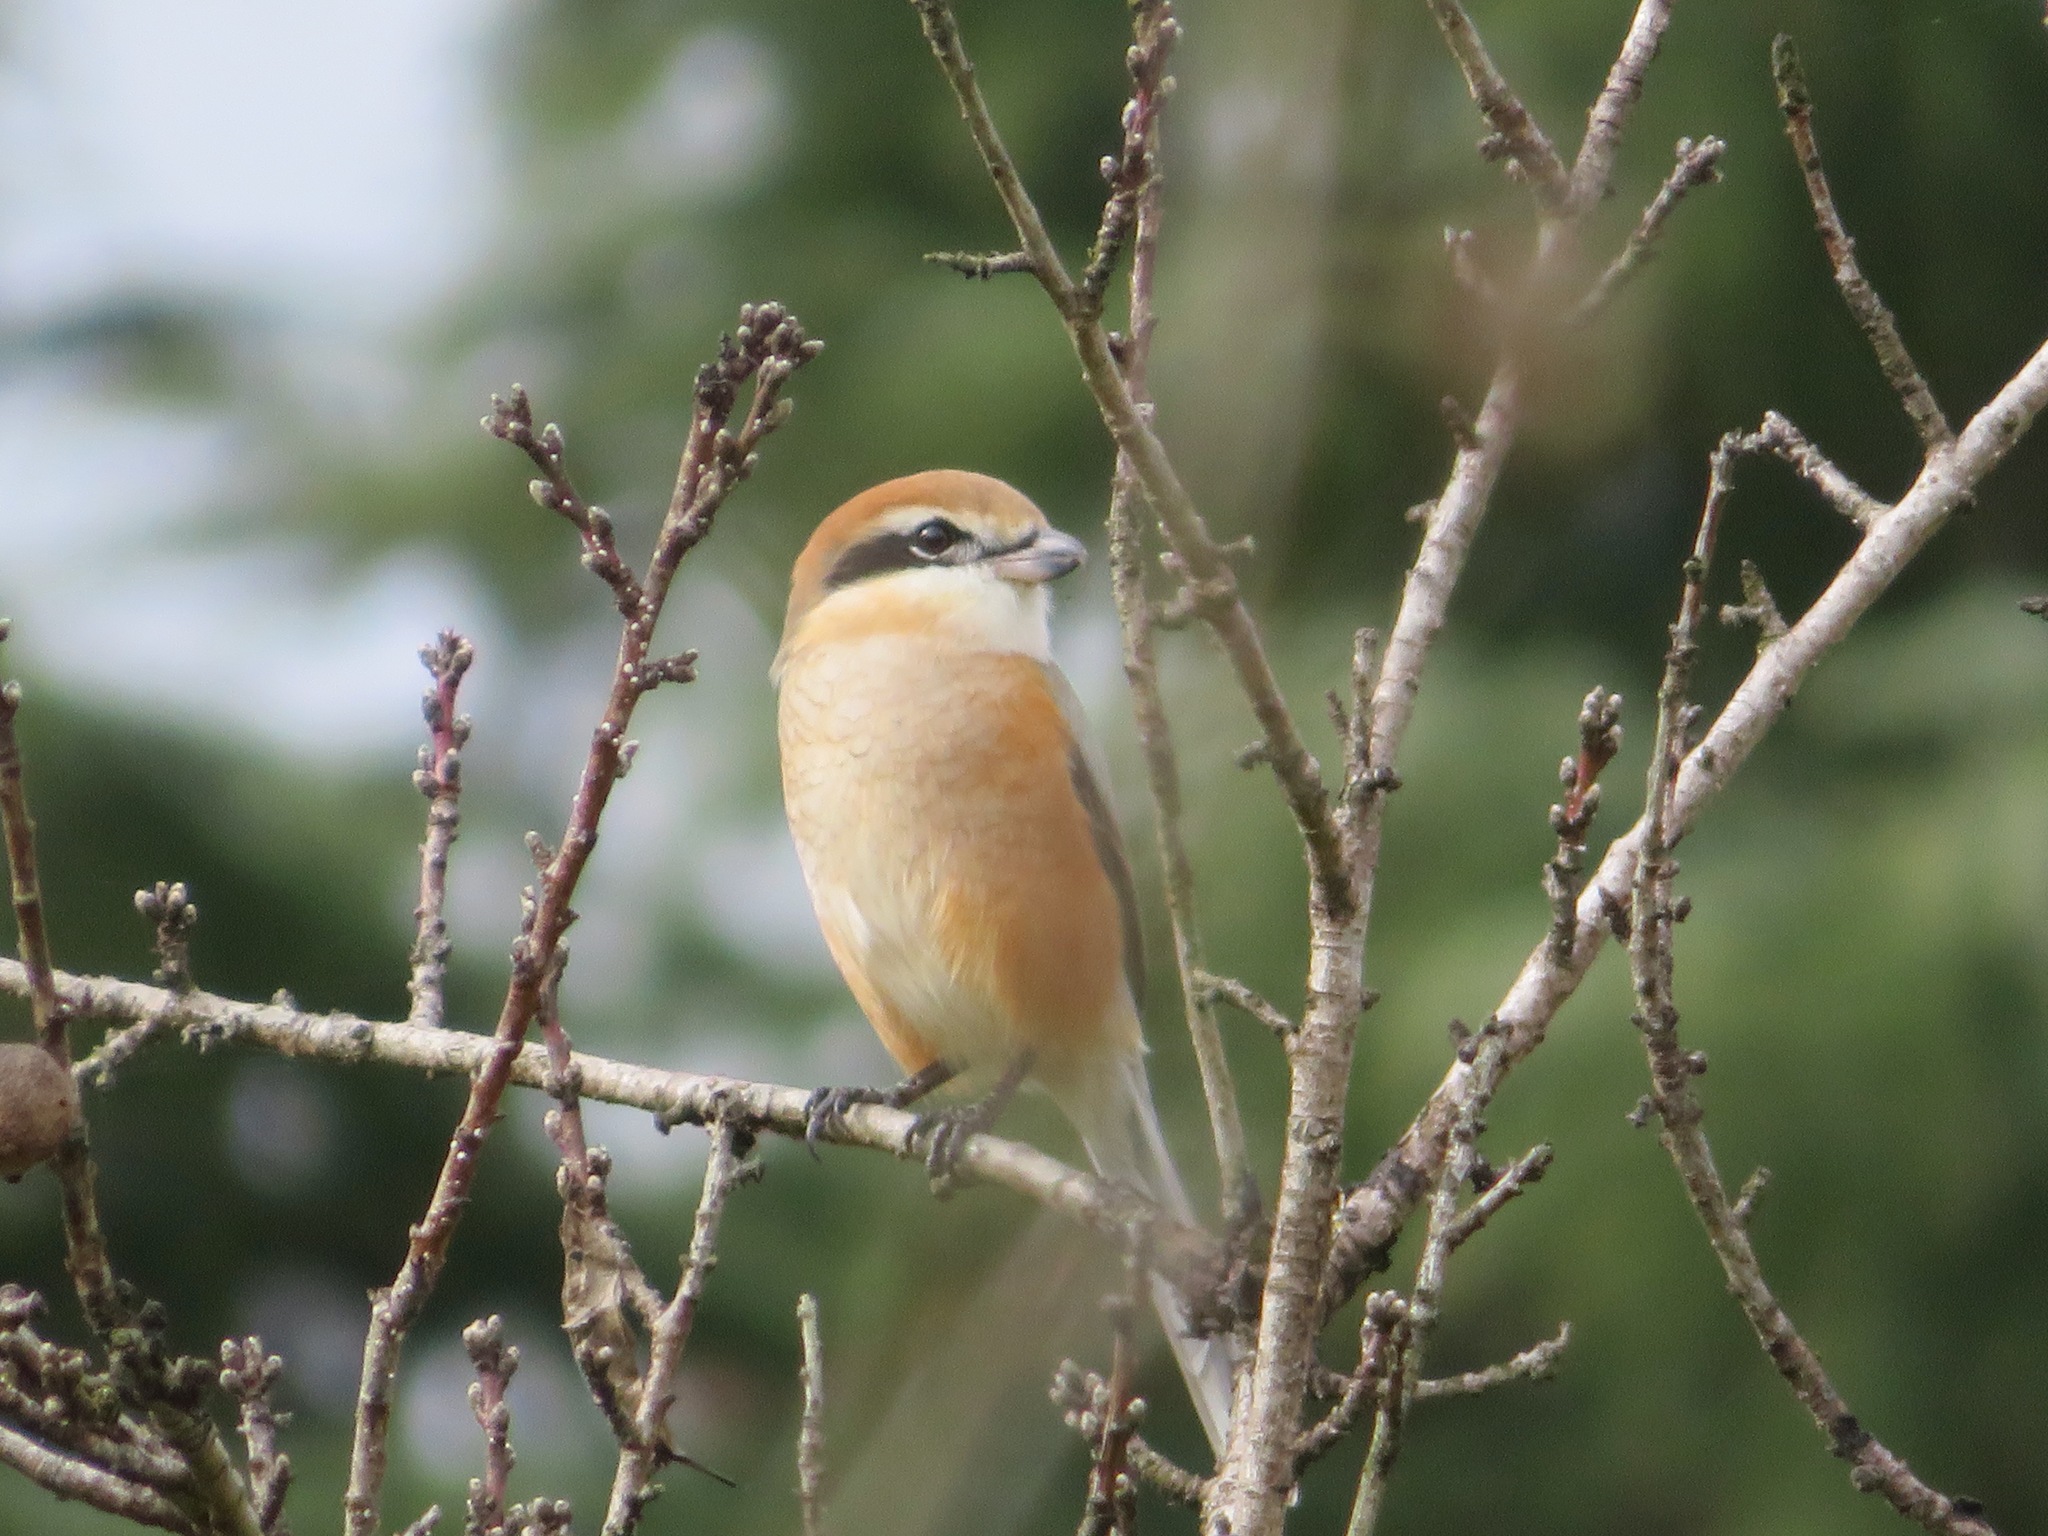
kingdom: Animalia
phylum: Chordata
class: Aves
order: Passeriformes
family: Laniidae
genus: Lanius
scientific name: Lanius bucephalus
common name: Bull-headed shrike
